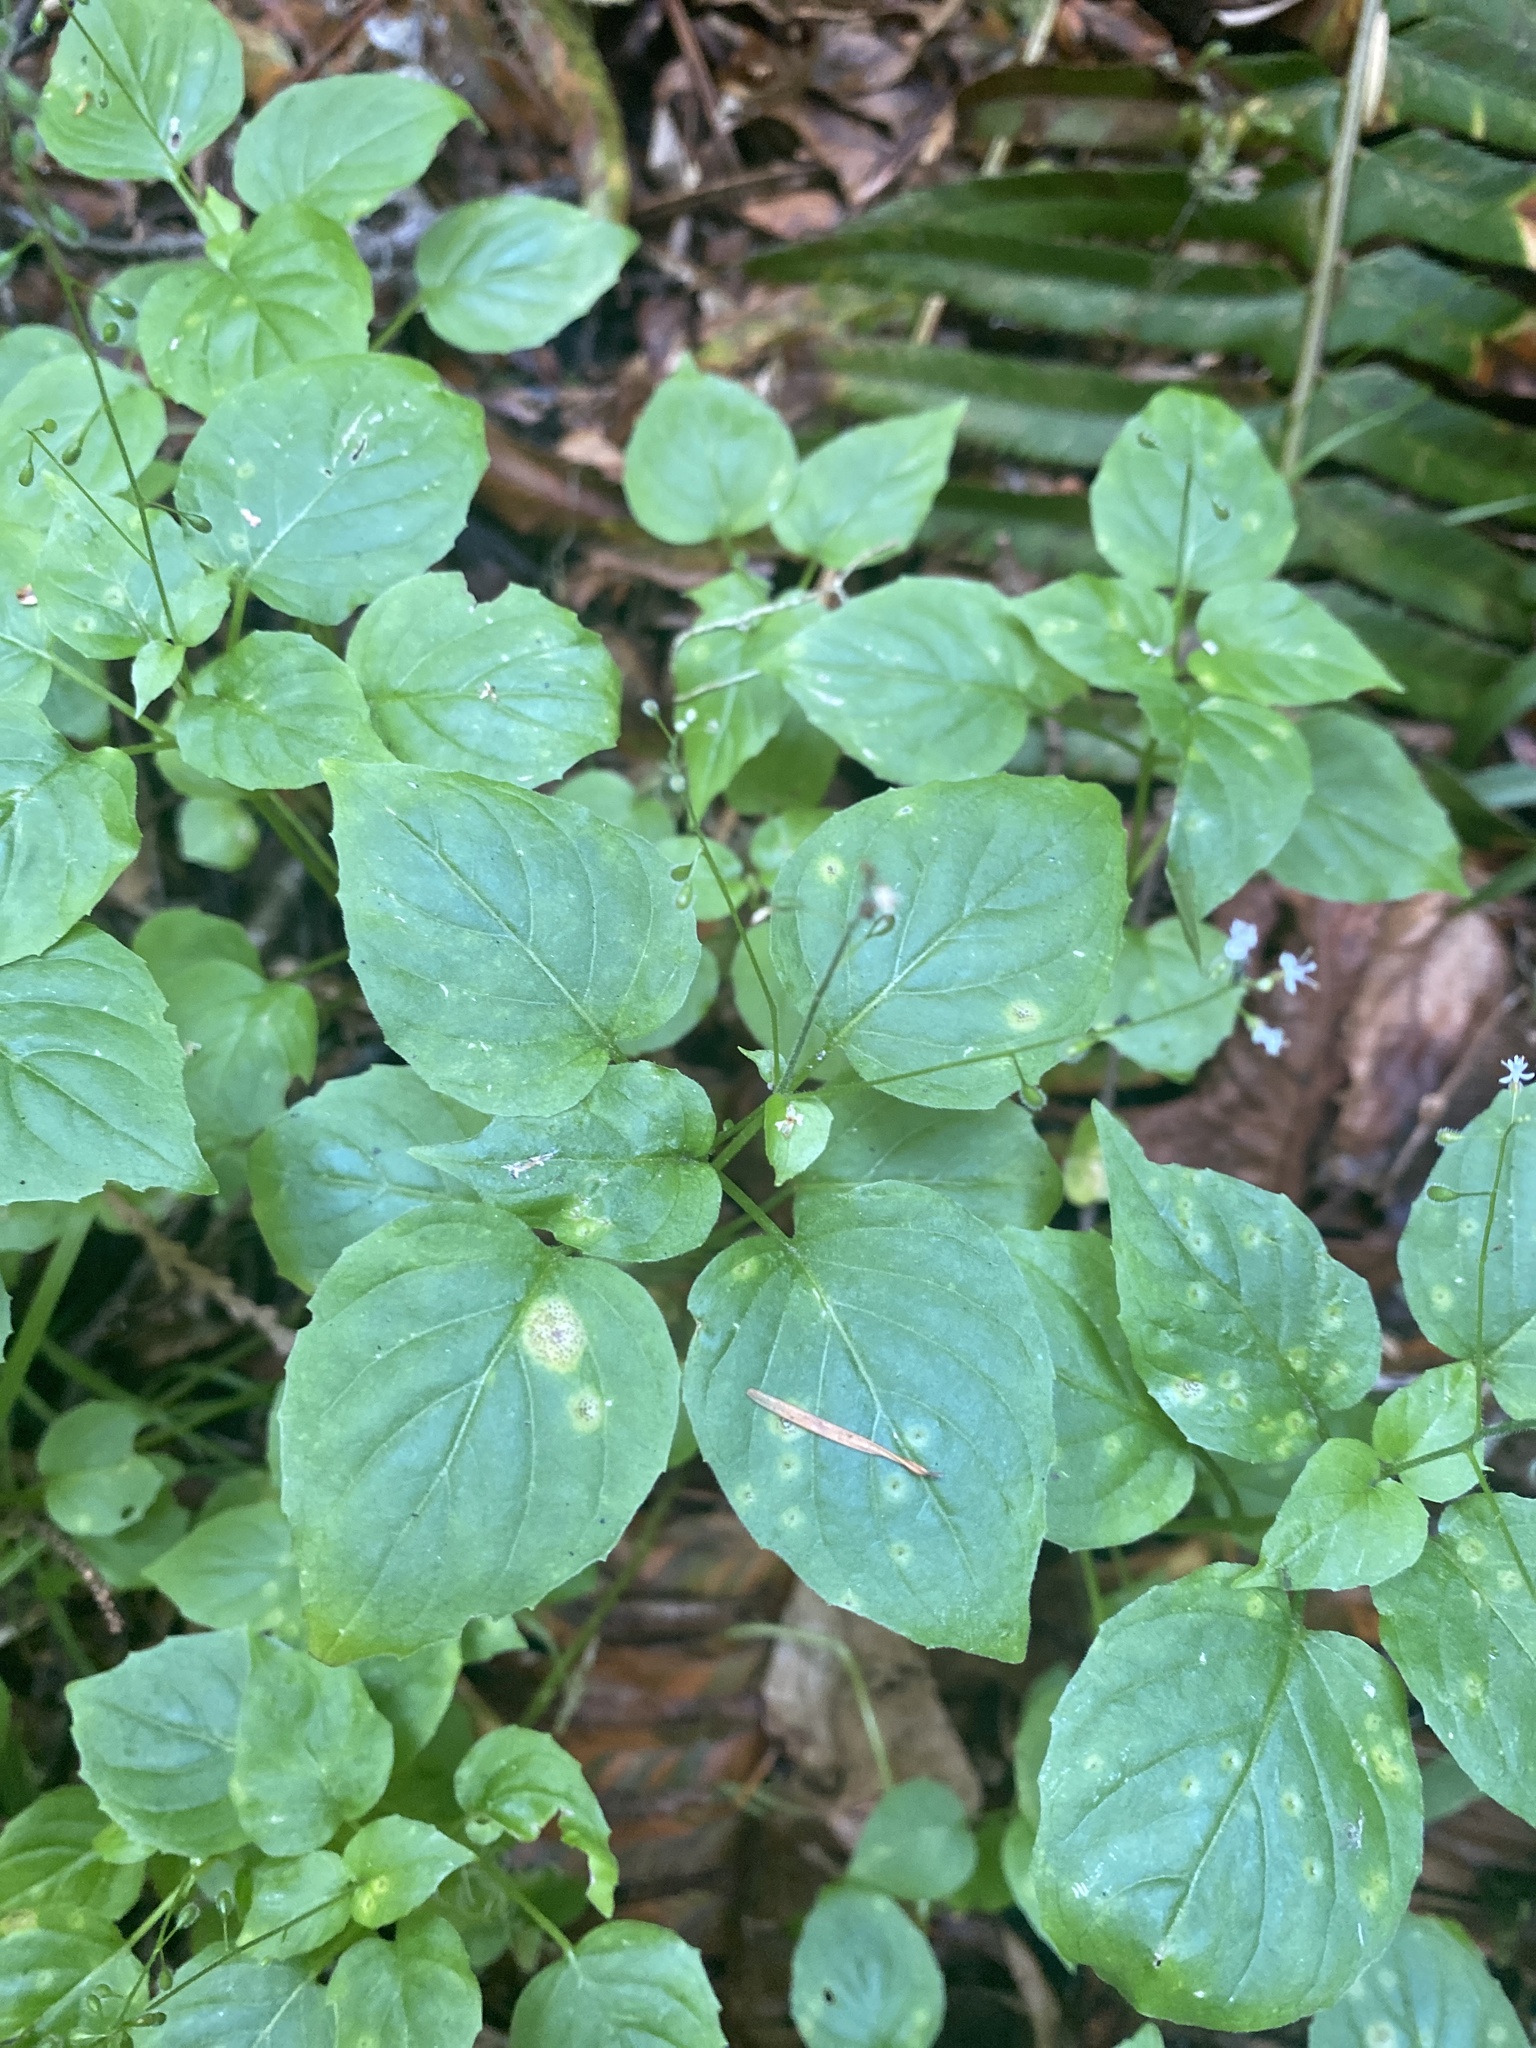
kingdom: Plantae
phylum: Tracheophyta
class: Magnoliopsida
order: Myrtales
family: Onagraceae
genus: Circaea
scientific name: Circaea alpina
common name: Alpine enchanter's-nightshade
